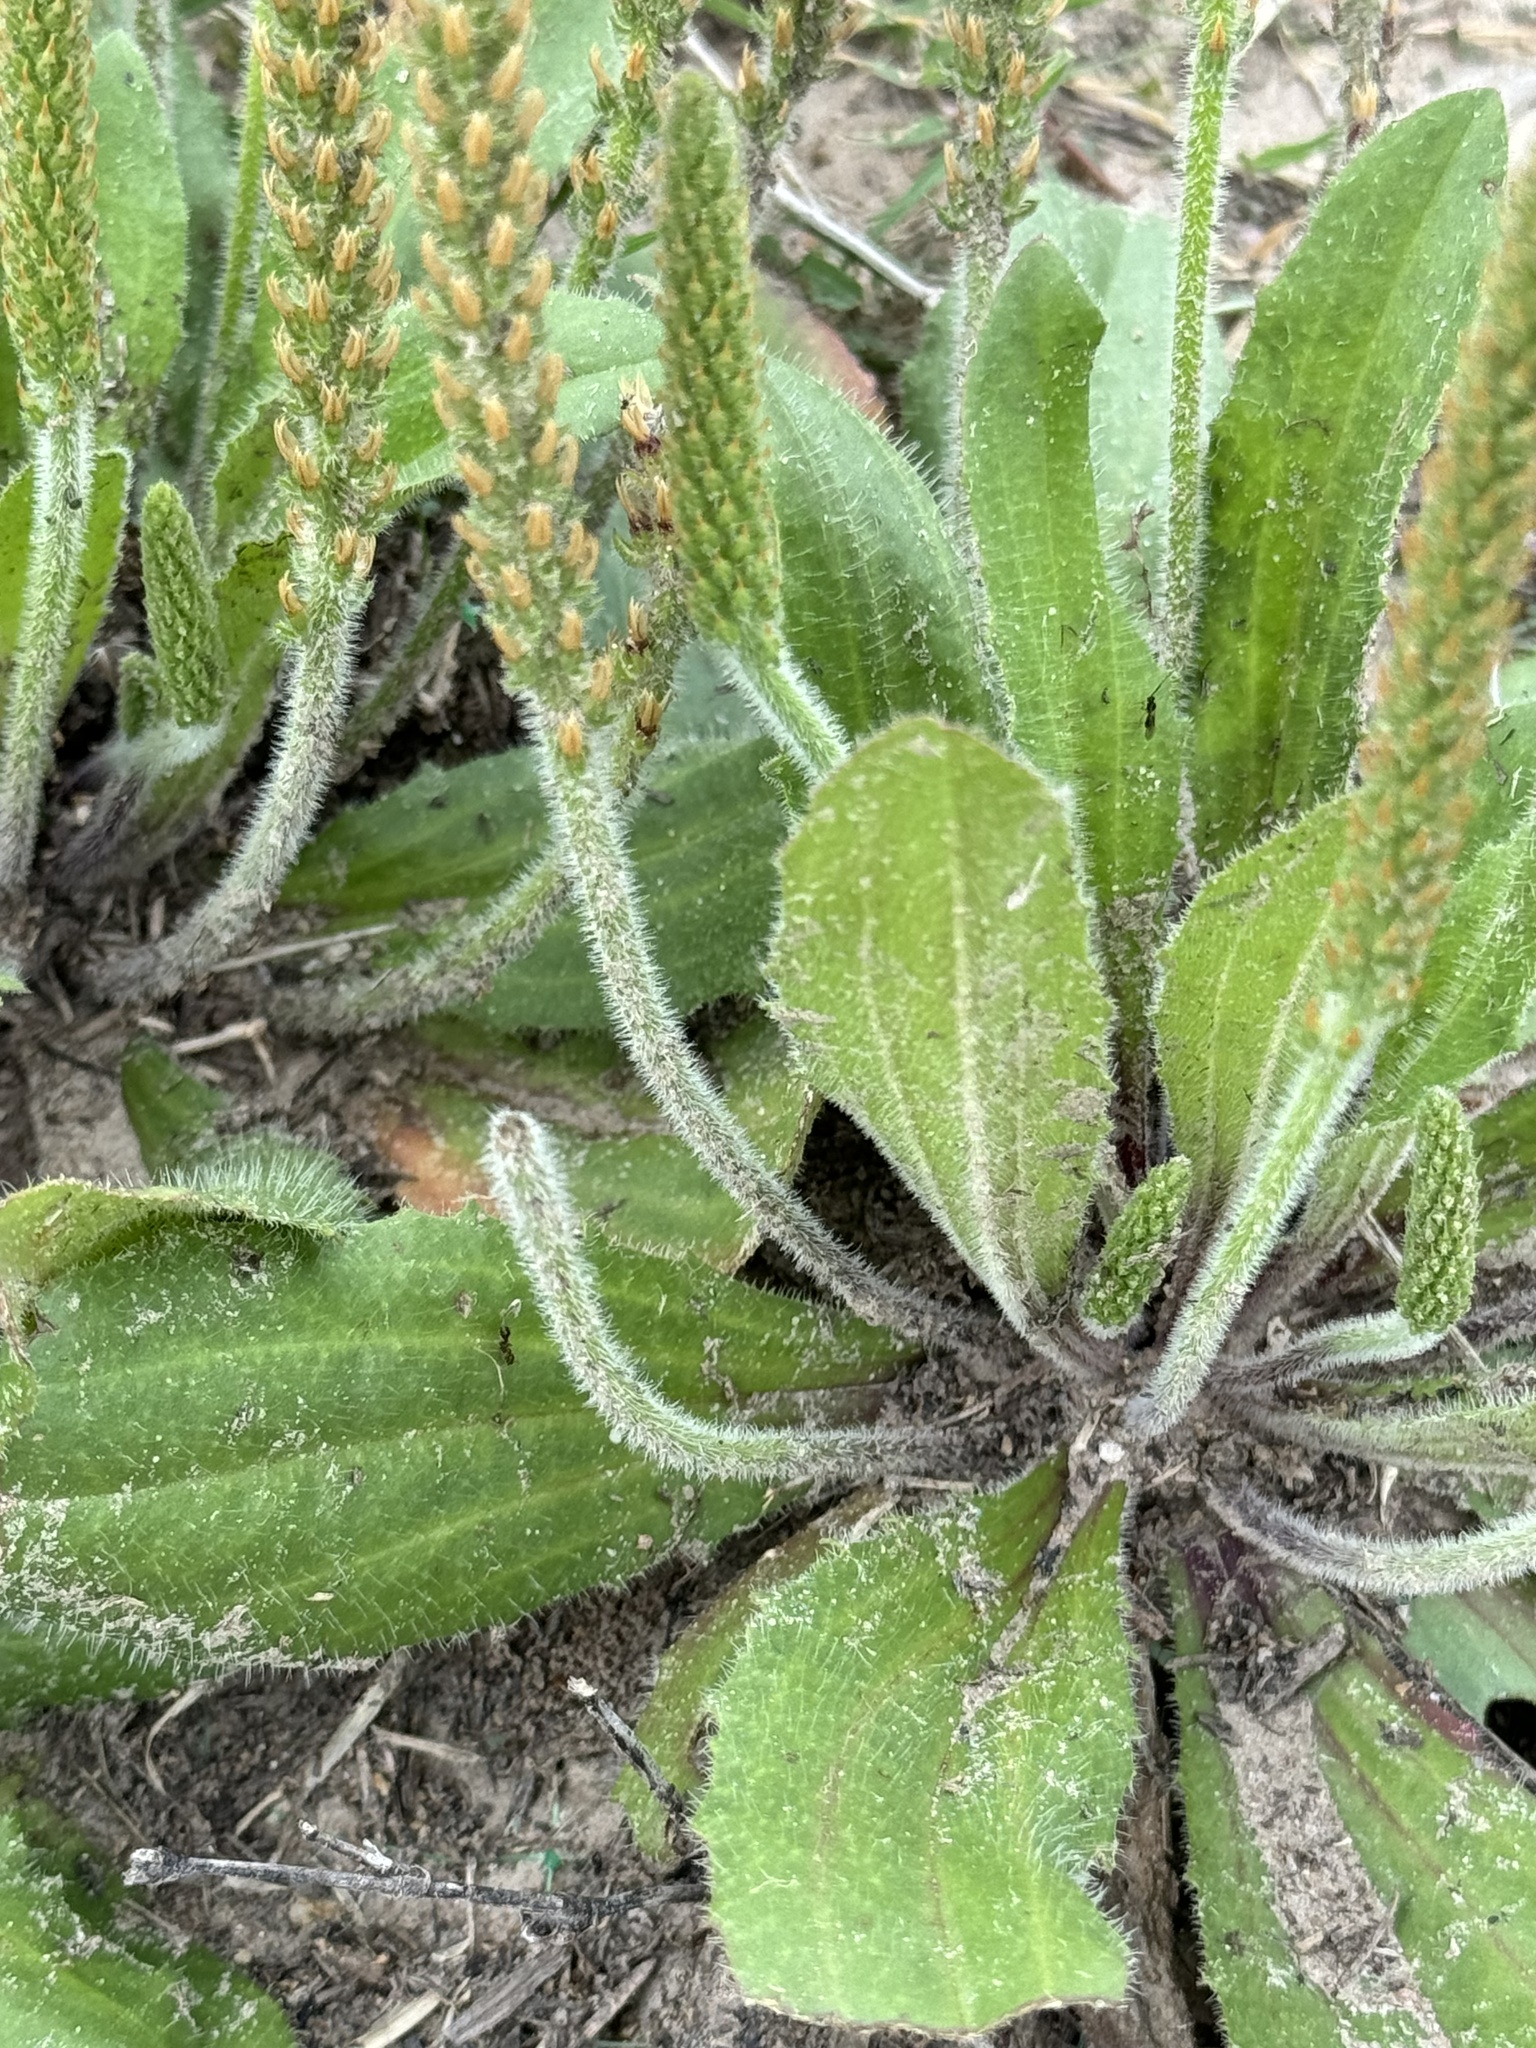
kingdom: Plantae
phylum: Tracheophyta
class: Magnoliopsida
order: Lamiales
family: Plantaginaceae
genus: Plantago
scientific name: Plantago rhodosperma
